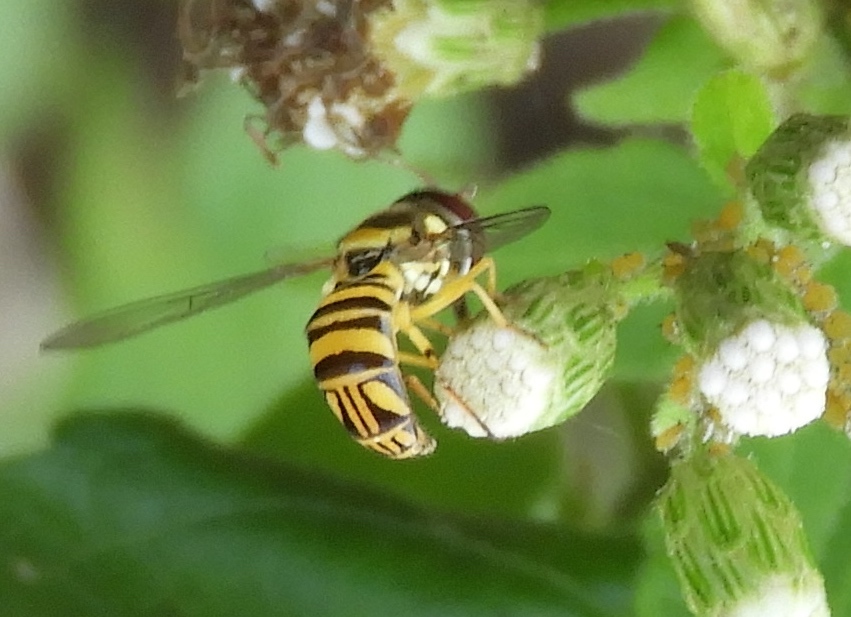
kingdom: Animalia
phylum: Arthropoda
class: Insecta
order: Diptera
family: Syrphidae
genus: Allograpta
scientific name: Allograpta obliqua
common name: Common oblique syrphid
